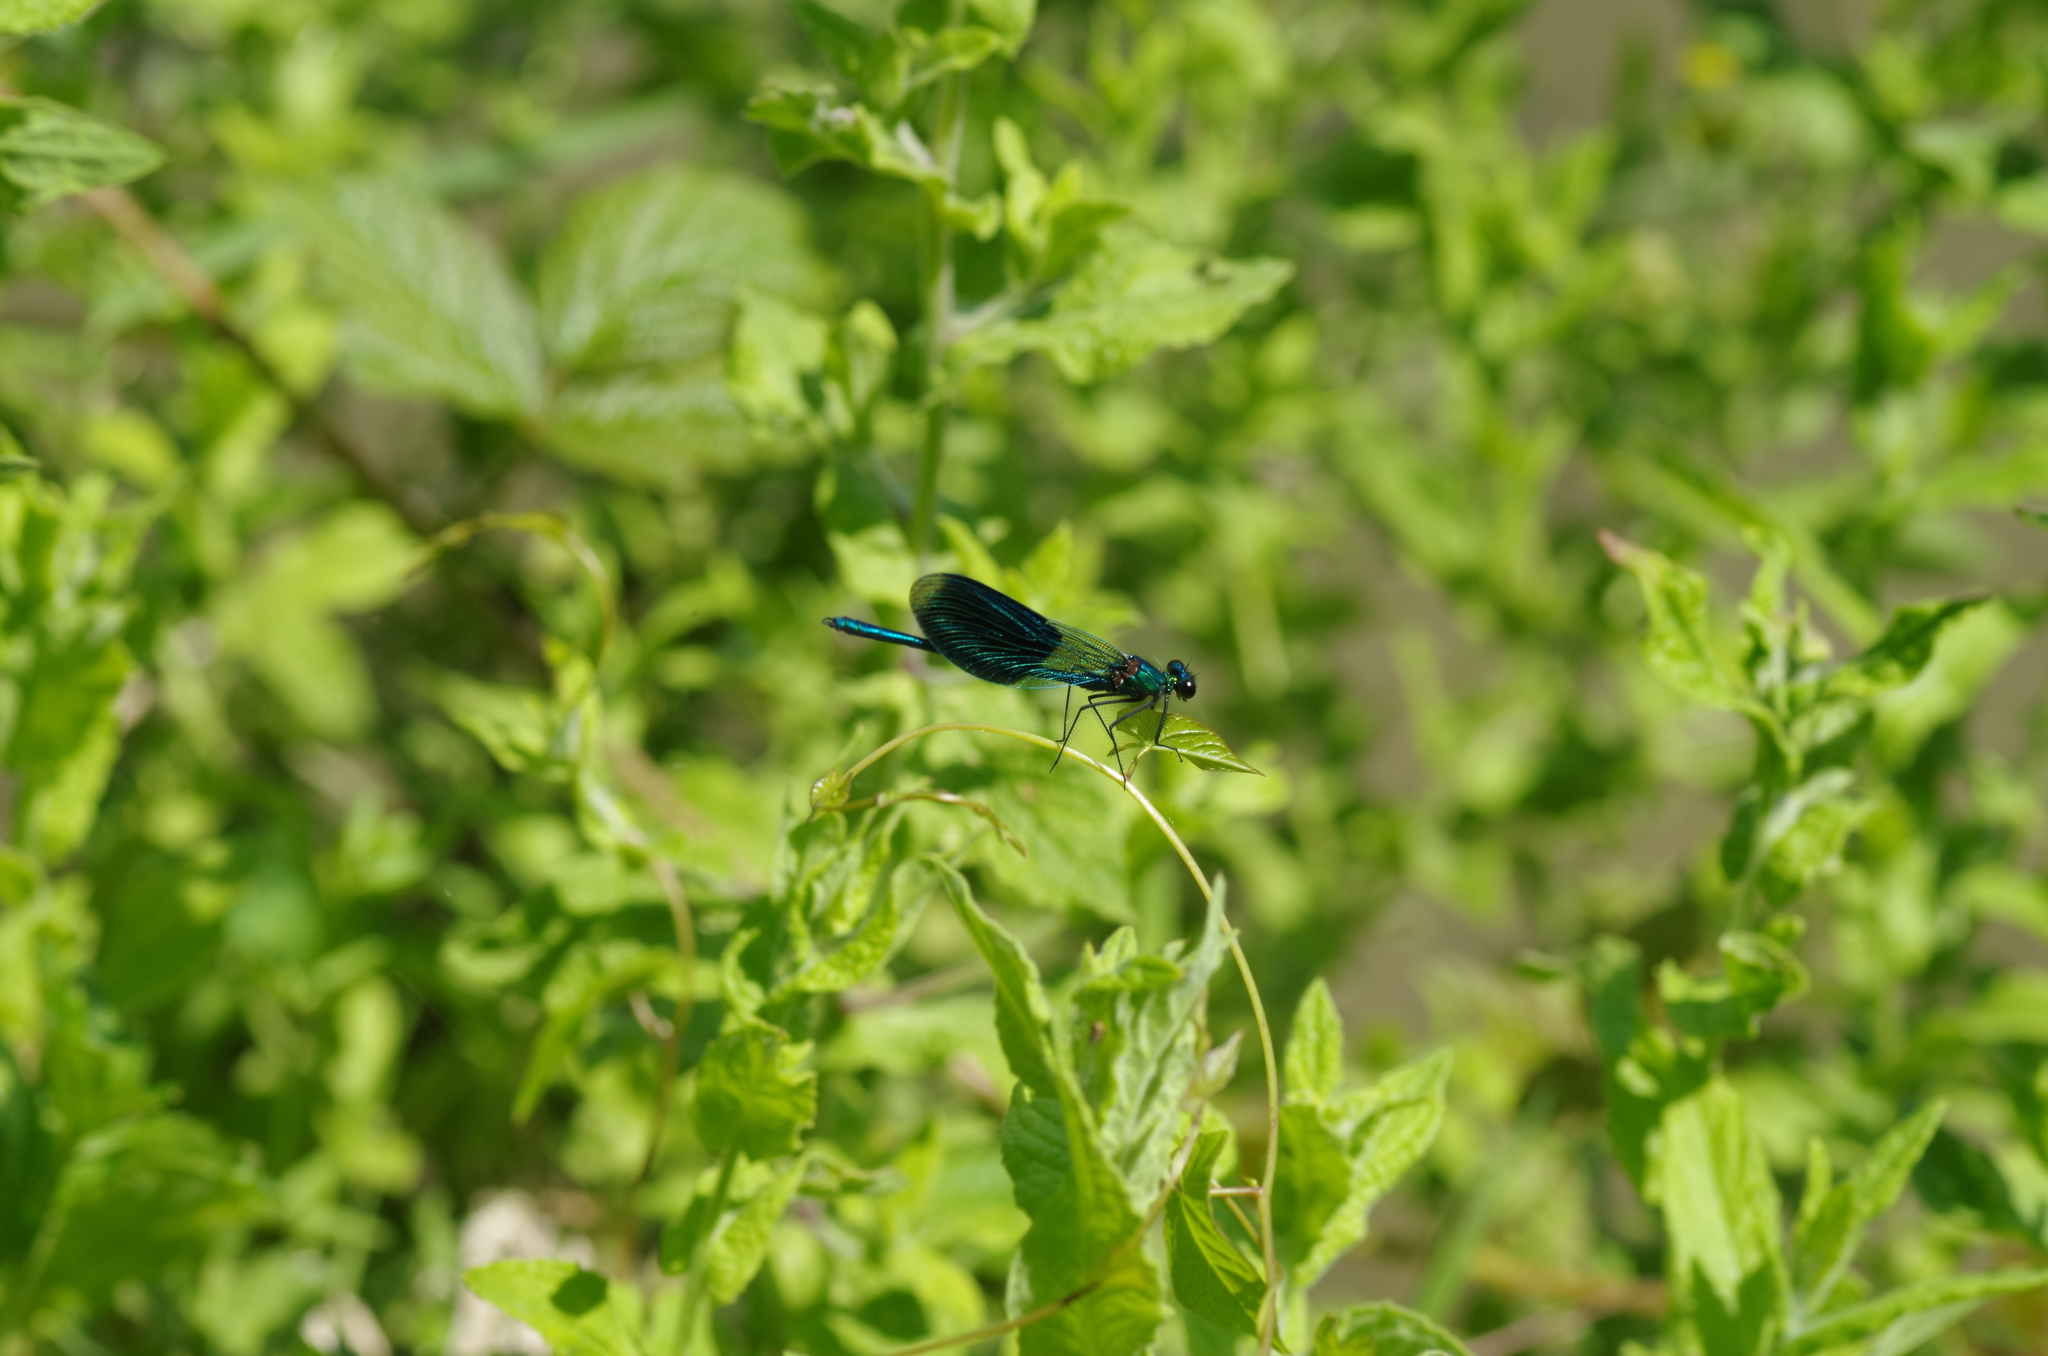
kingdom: Animalia
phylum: Arthropoda
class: Insecta
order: Odonata
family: Calopterygidae
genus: Calopteryx
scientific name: Calopteryx splendens
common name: Banded demoiselle
